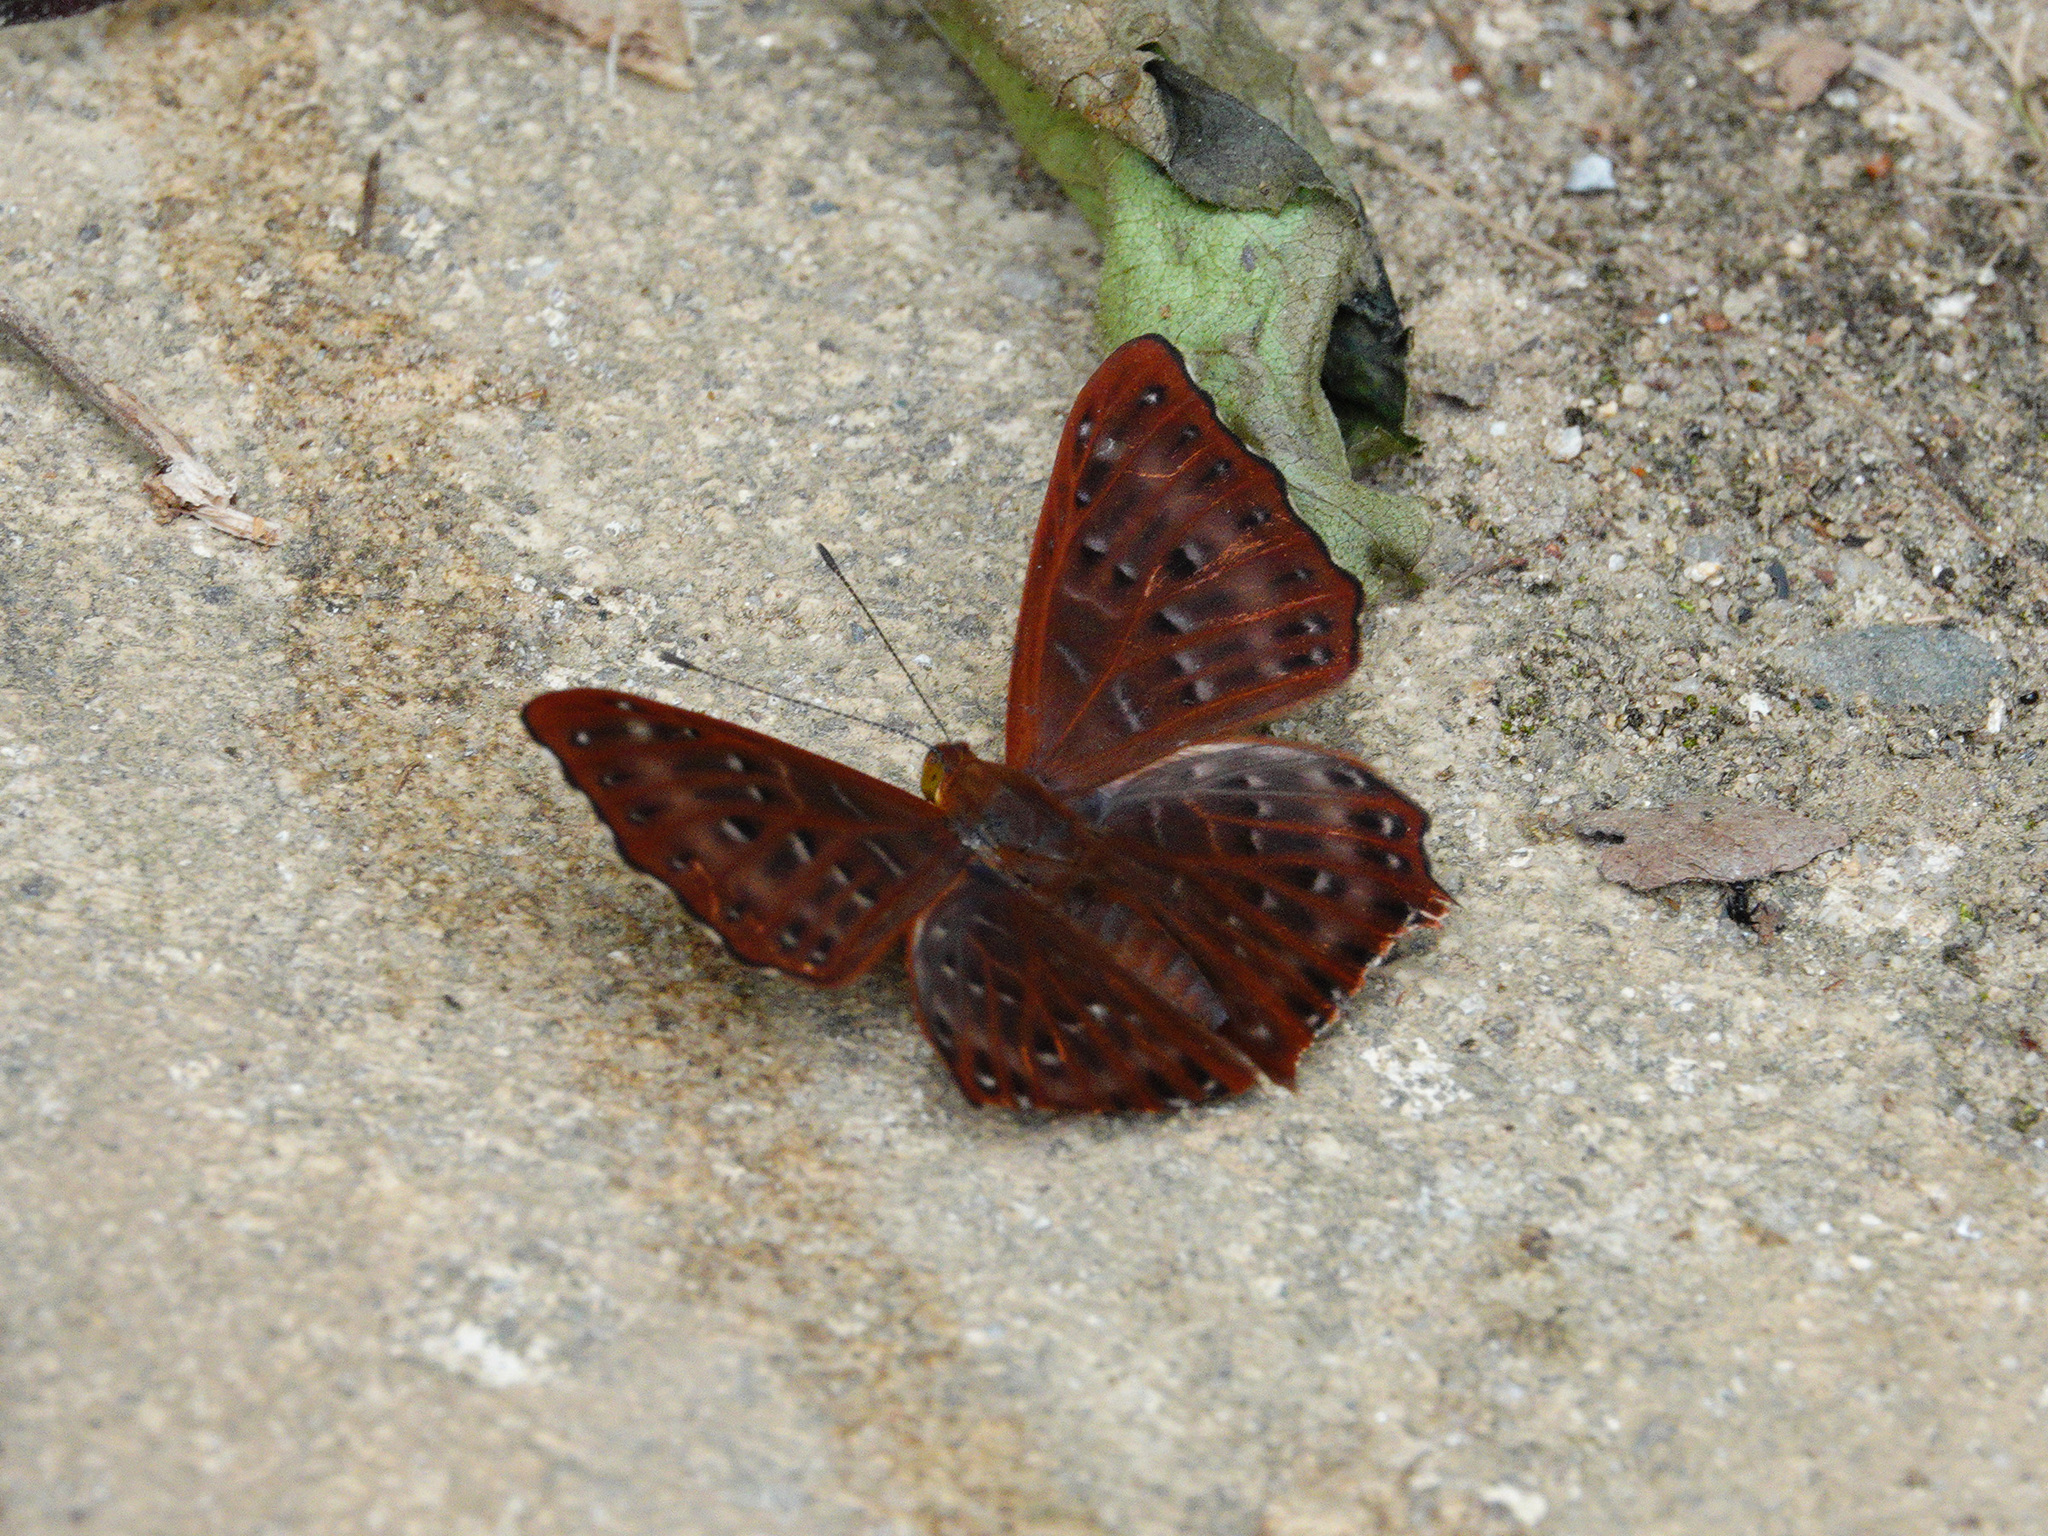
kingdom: Animalia
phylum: Arthropoda
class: Insecta
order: Lepidoptera
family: Riodinidae
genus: Zemeros
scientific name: Zemeros flegyas
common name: Punchinello
